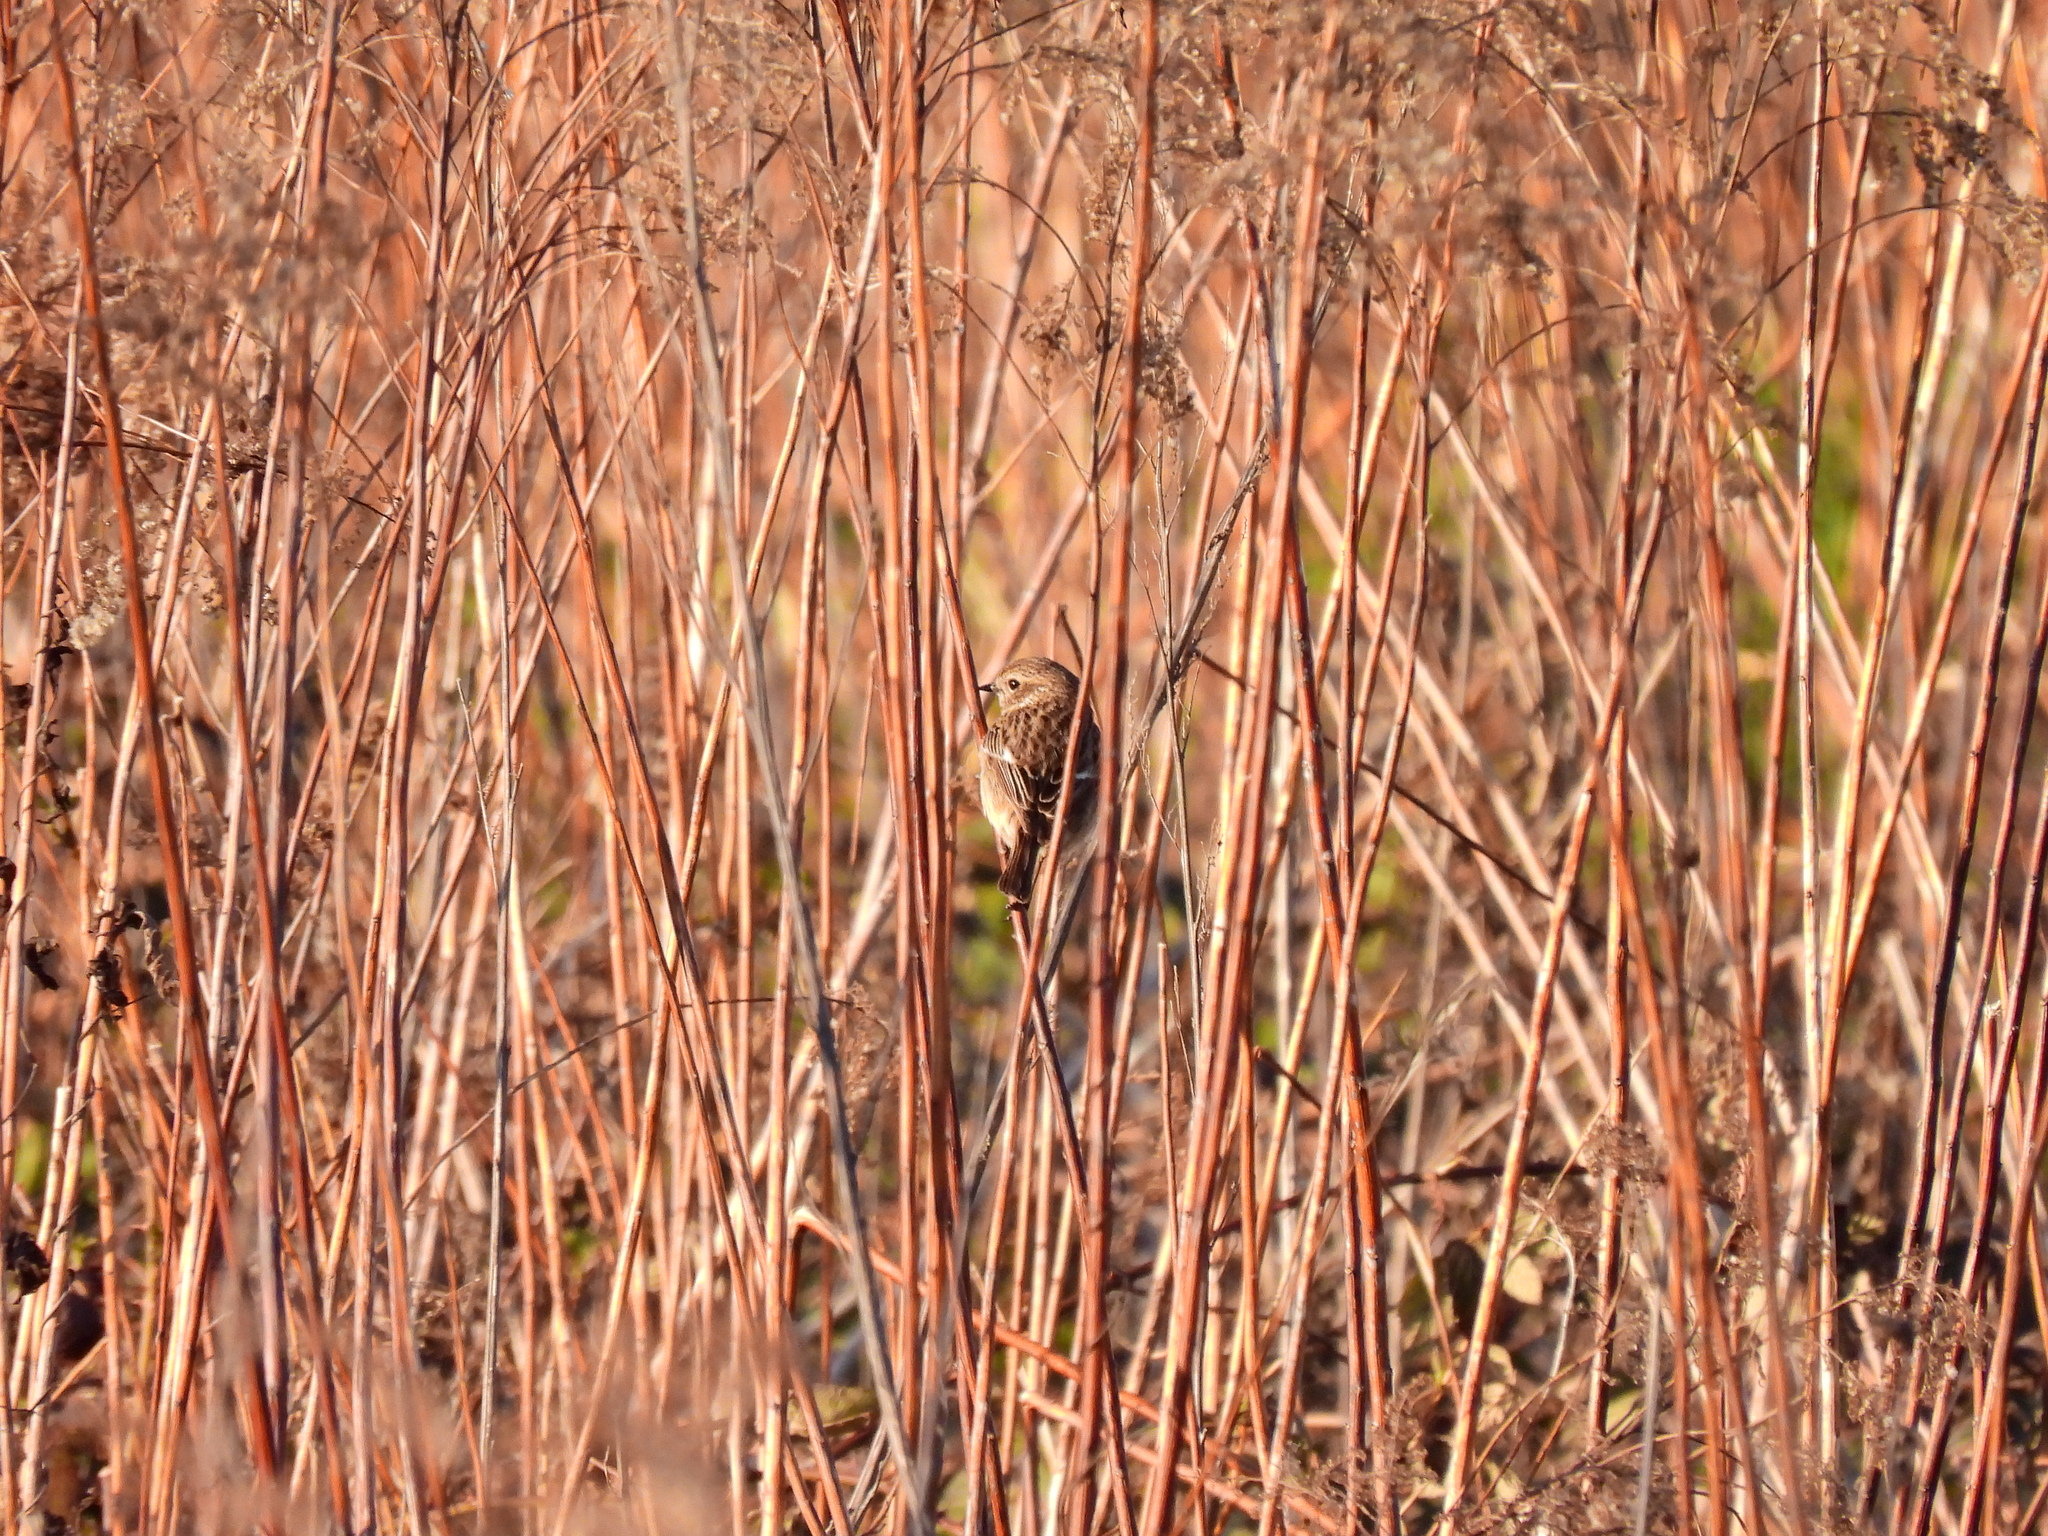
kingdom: Animalia
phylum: Chordata
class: Aves
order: Passeriformes
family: Muscicapidae
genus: Saxicola
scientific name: Saxicola rubicola
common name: European stonechat
